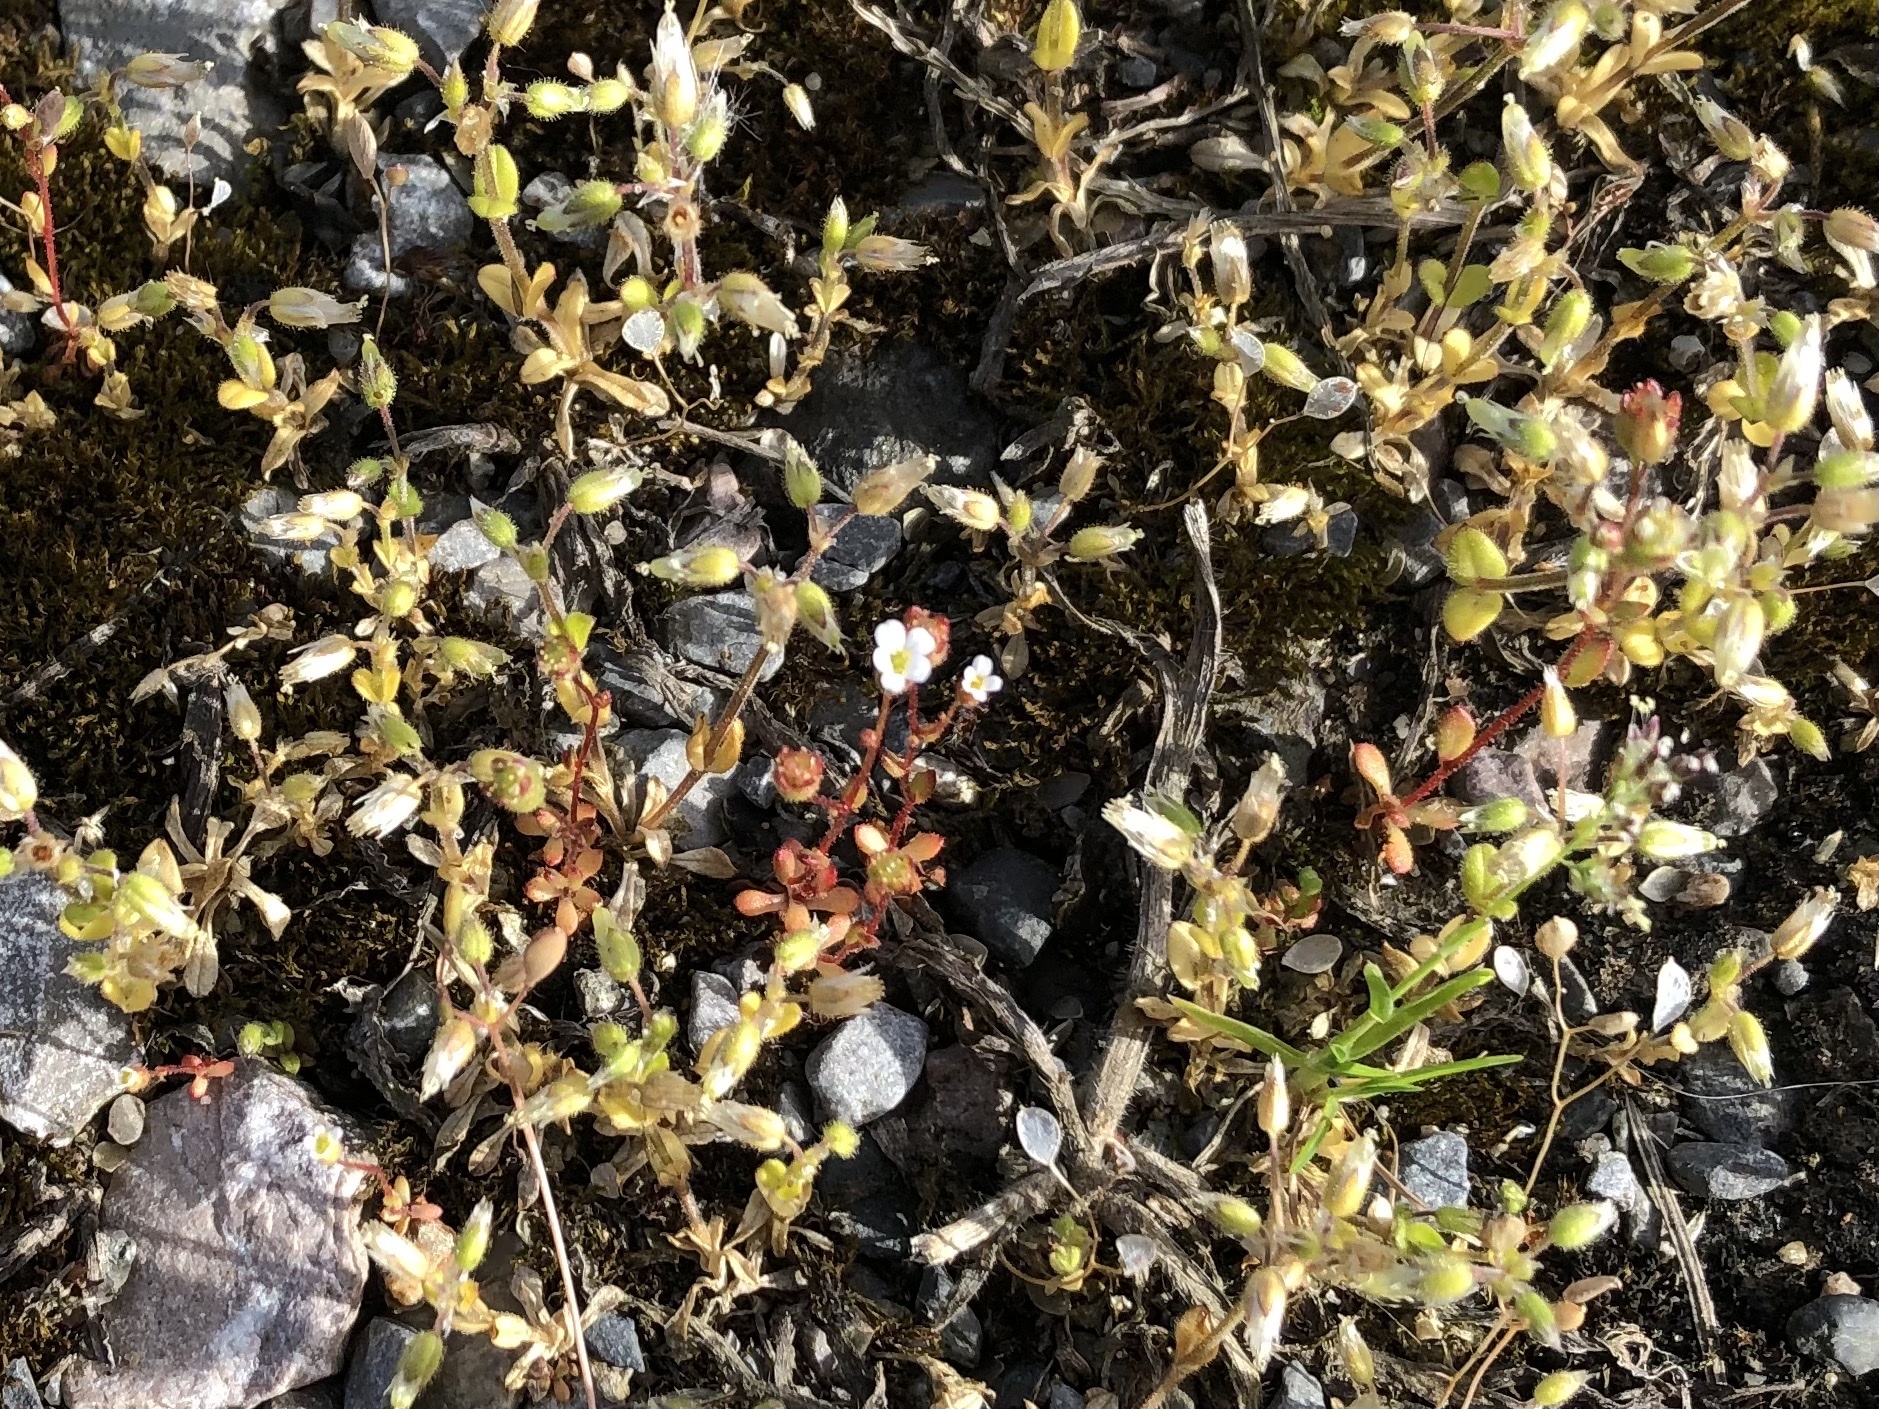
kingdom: Plantae
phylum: Tracheophyta
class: Magnoliopsida
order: Saxifragales
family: Saxifragaceae
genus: Saxifraga
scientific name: Saxifraga tridactylites
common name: Rue-leaved saxifrage
